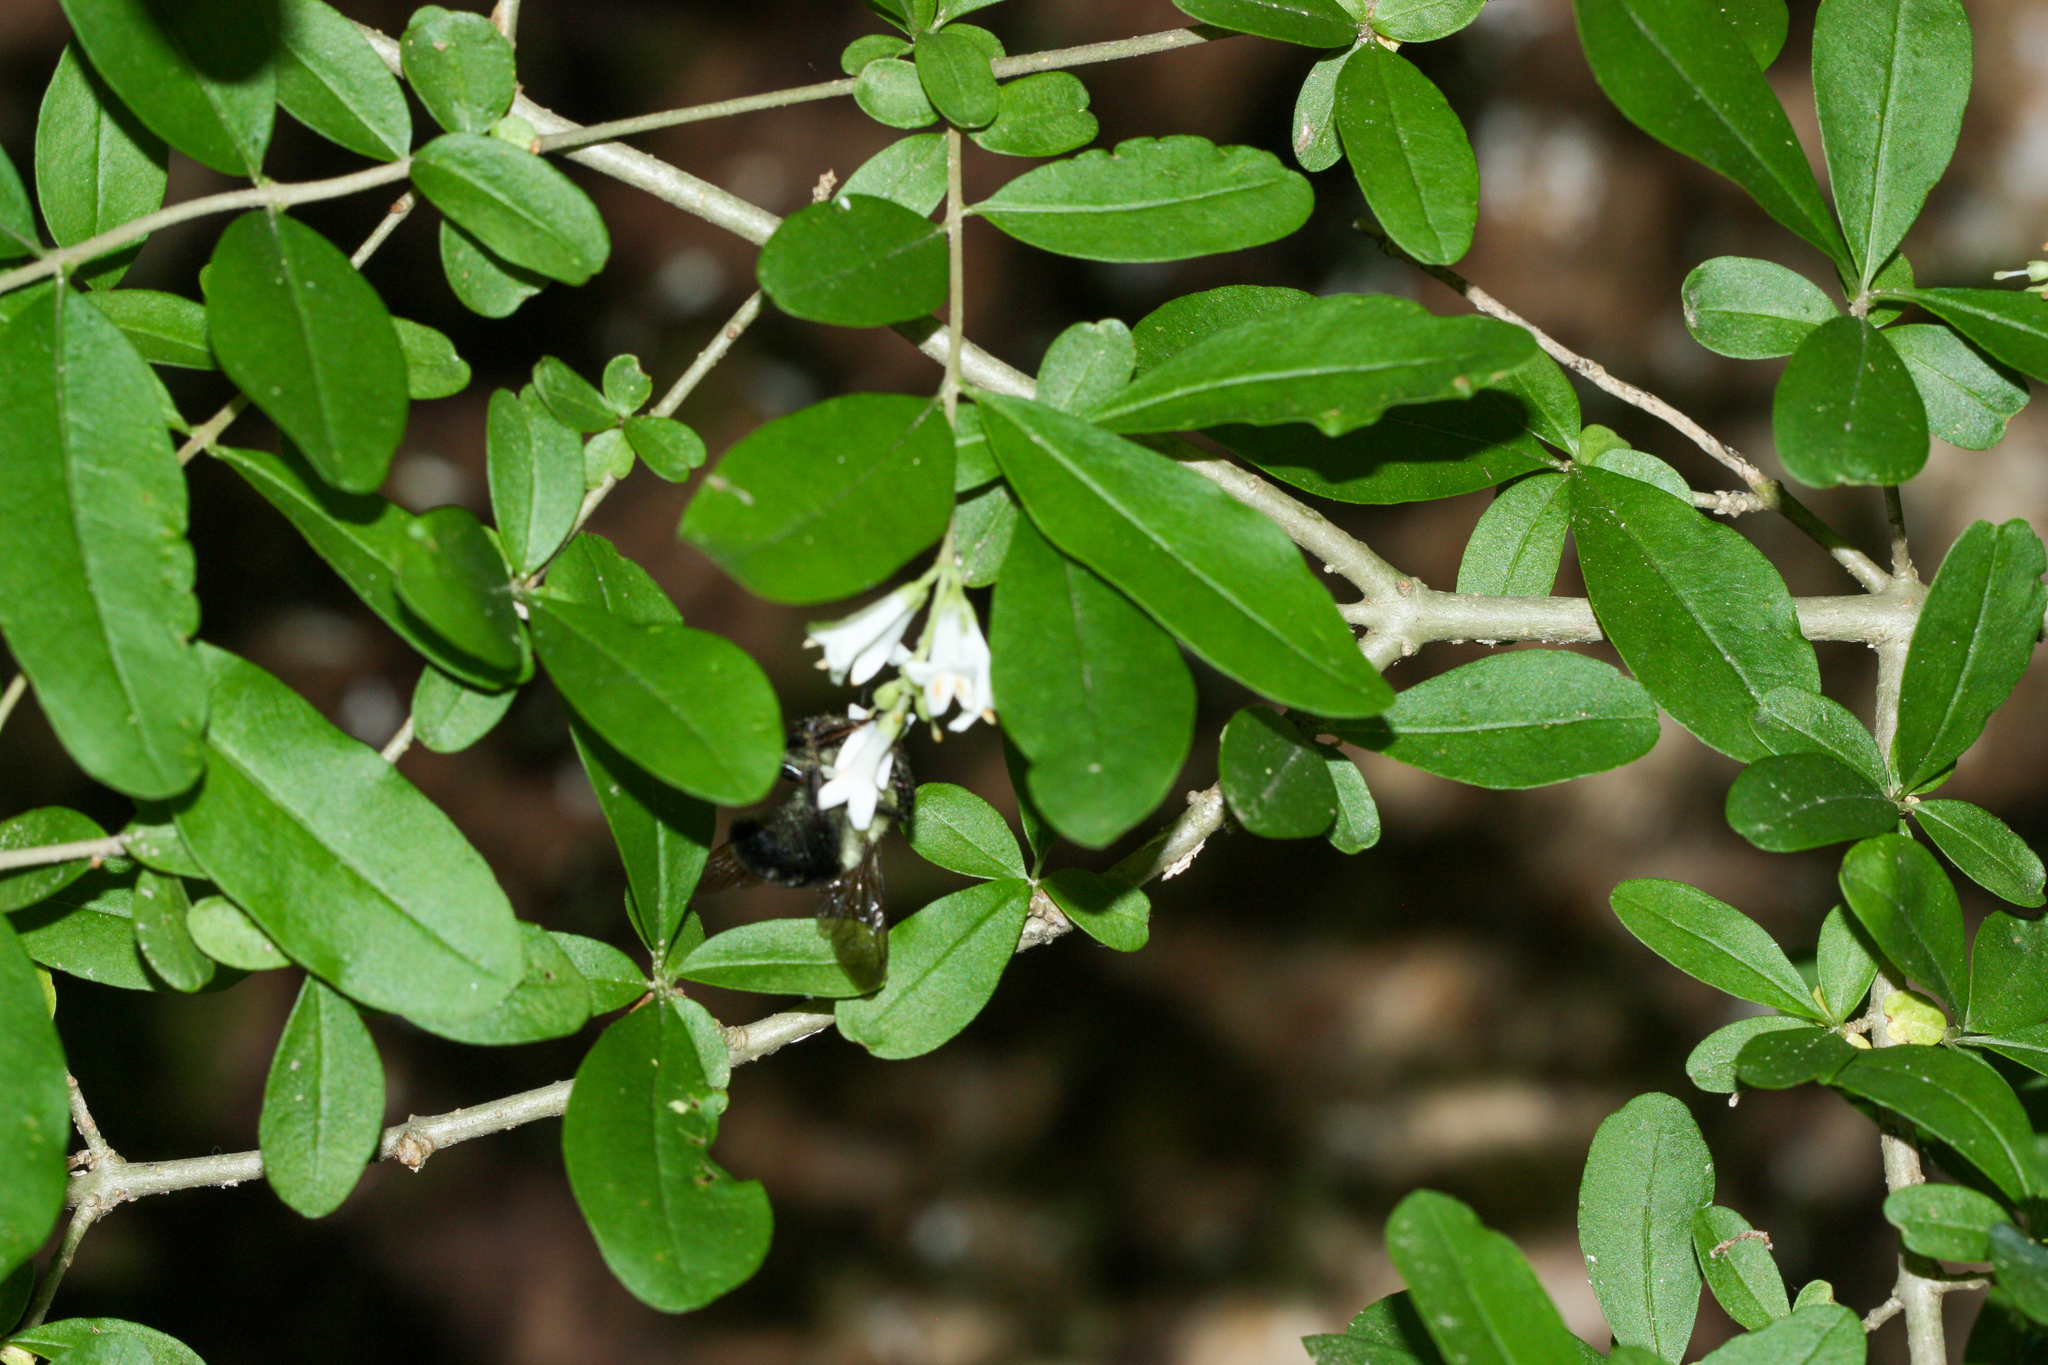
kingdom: Plantae
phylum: Tracheophyta
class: Magnoliopsida
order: Lamiales
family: Oleaceae
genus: Ligustrum
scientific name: Ligustrum obtusifolium
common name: Border privet
